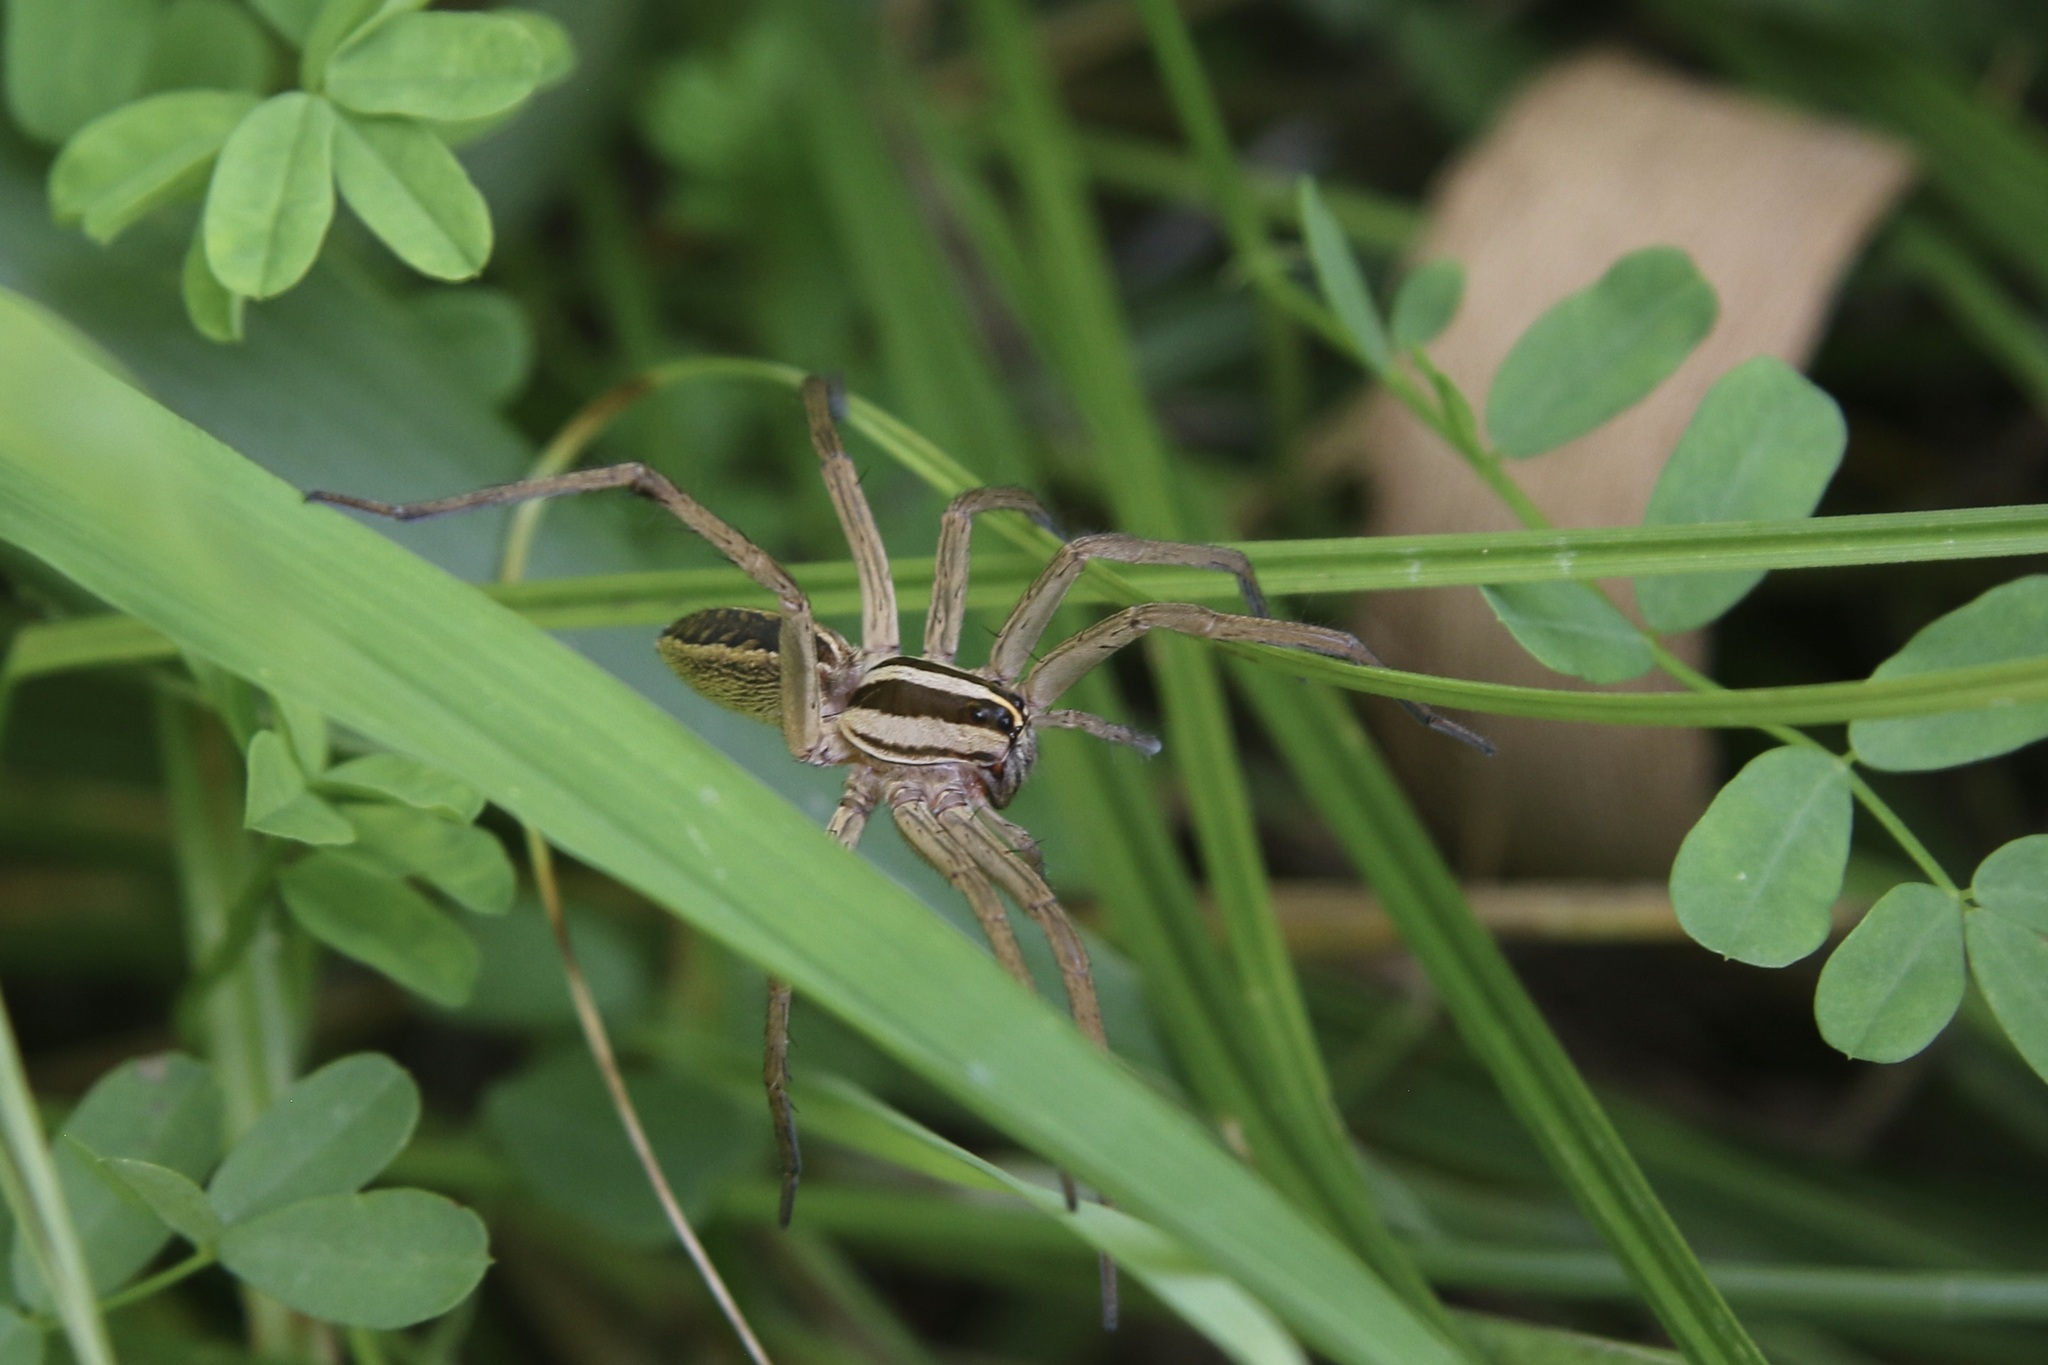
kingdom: Animalia
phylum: Arthropoda
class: Arachnida
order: Araneae
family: Lycosidae
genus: Rabidosa
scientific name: Rabidosa rabida
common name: Rabid wolf spider
